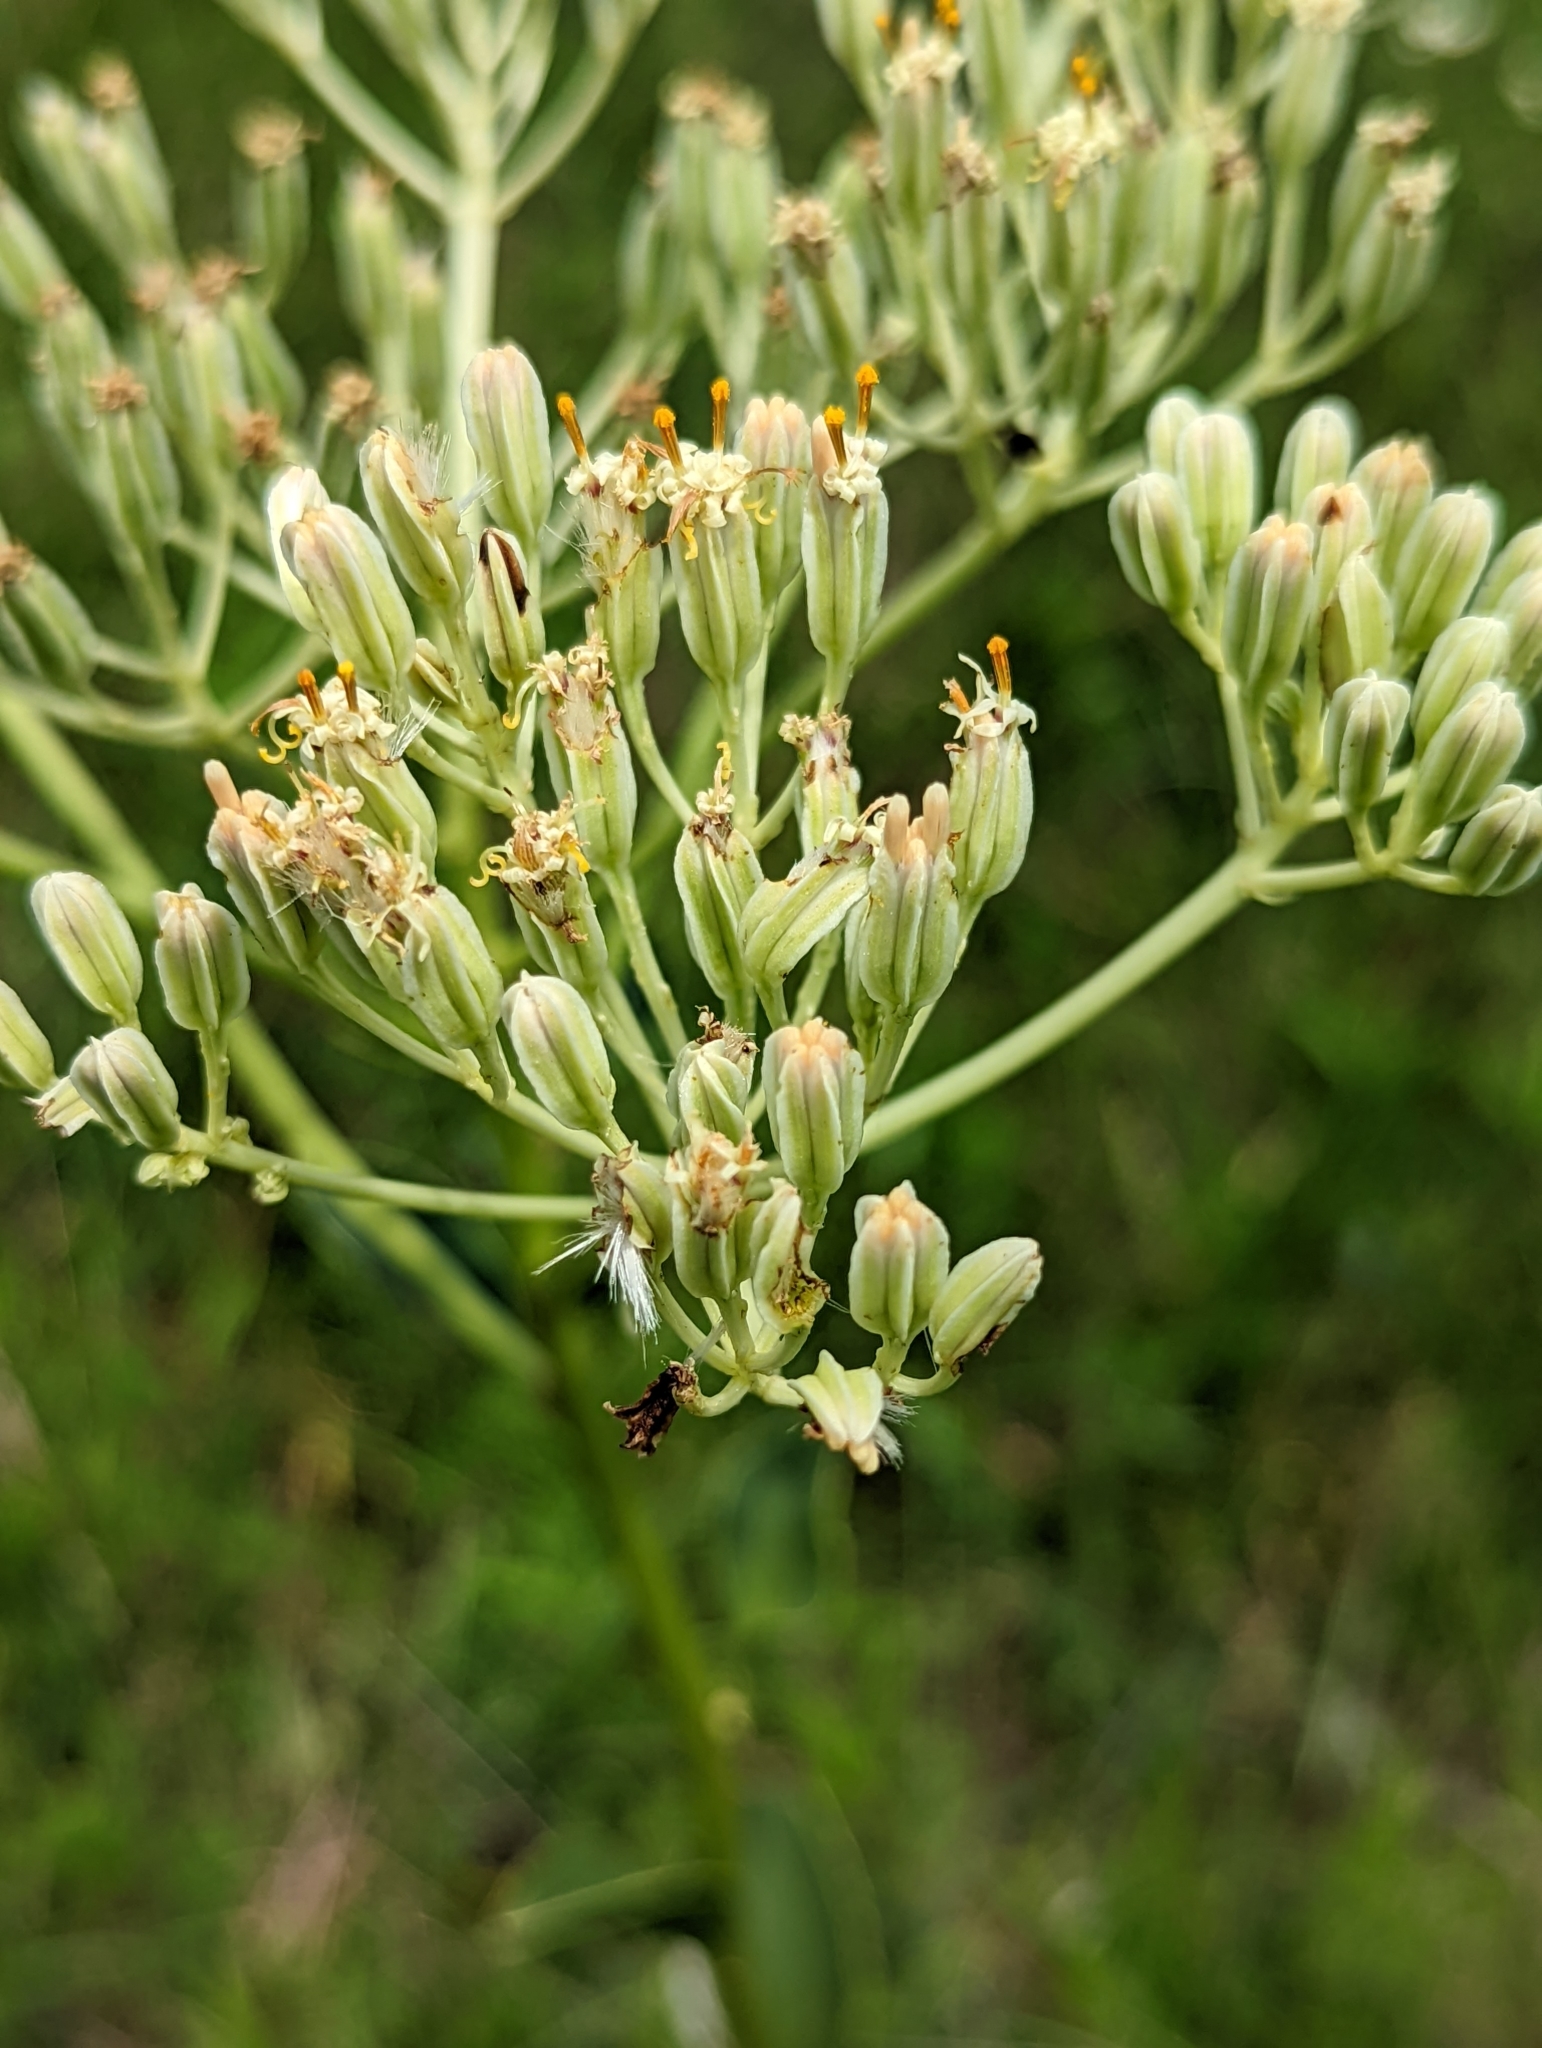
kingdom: Plantae
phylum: Tracheophyta
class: Magnoliopsida
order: Asterales
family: Asteraceae
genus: Arnoglossum
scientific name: Arnoglossum plantagineum
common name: Groove-stemmed indian-plantain
